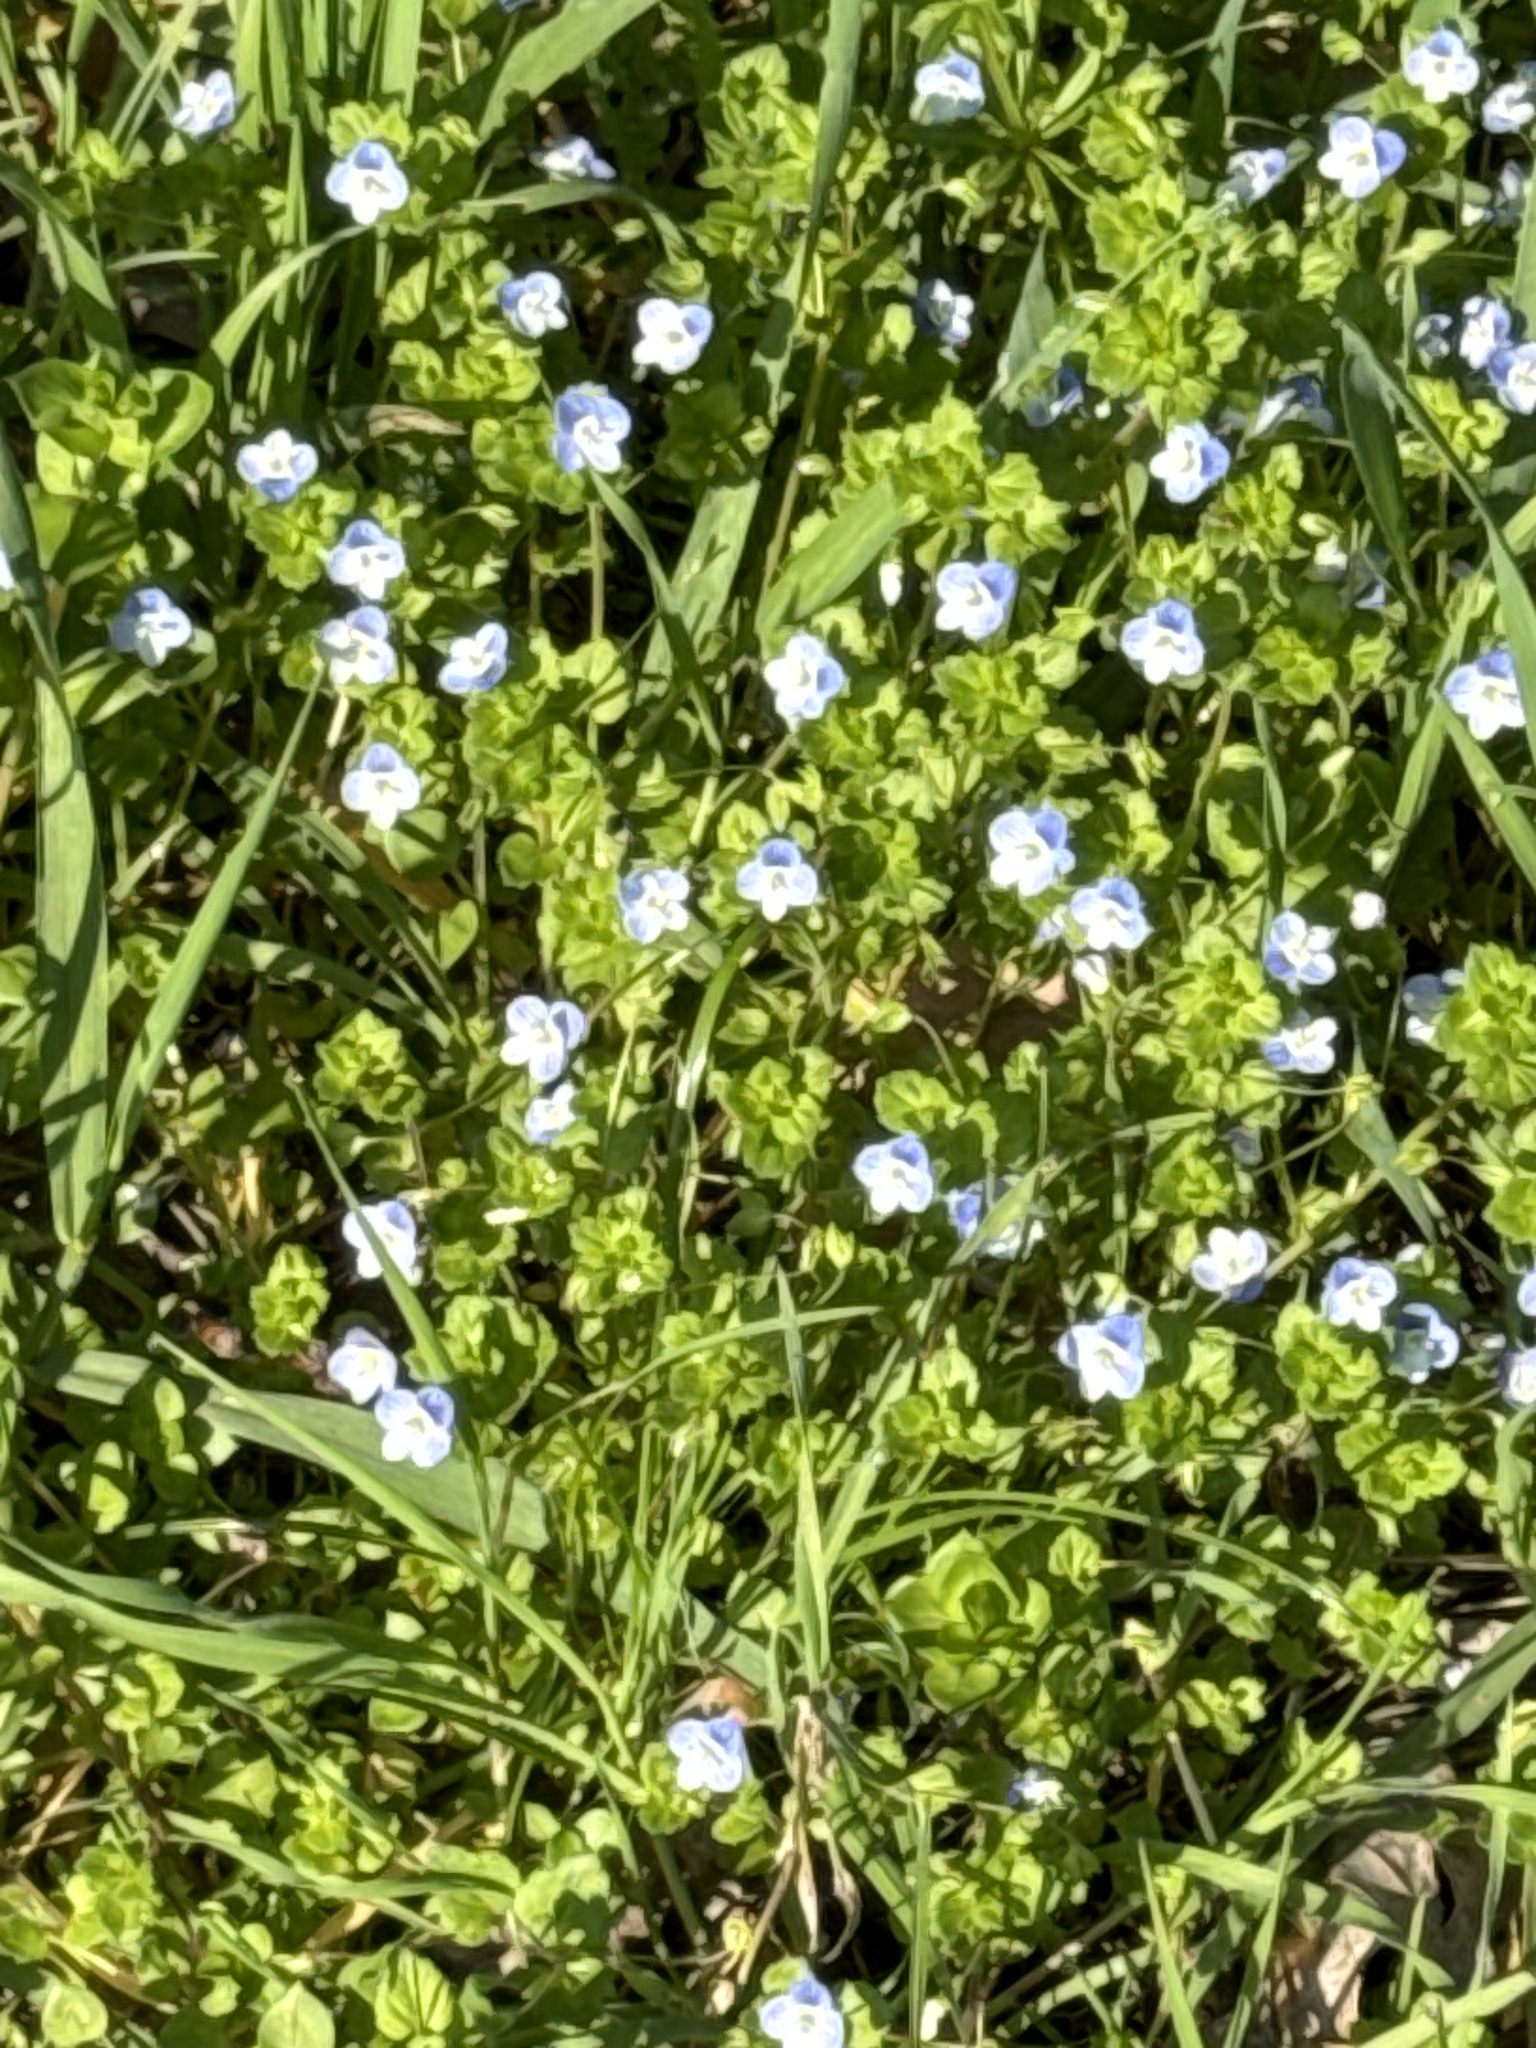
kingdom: Plantae
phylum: Tracheophyta
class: Magnoliopsida
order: Lamiales
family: Plantaginaceae
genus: Veronica
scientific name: Veronica persica
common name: Common field-speedwell
